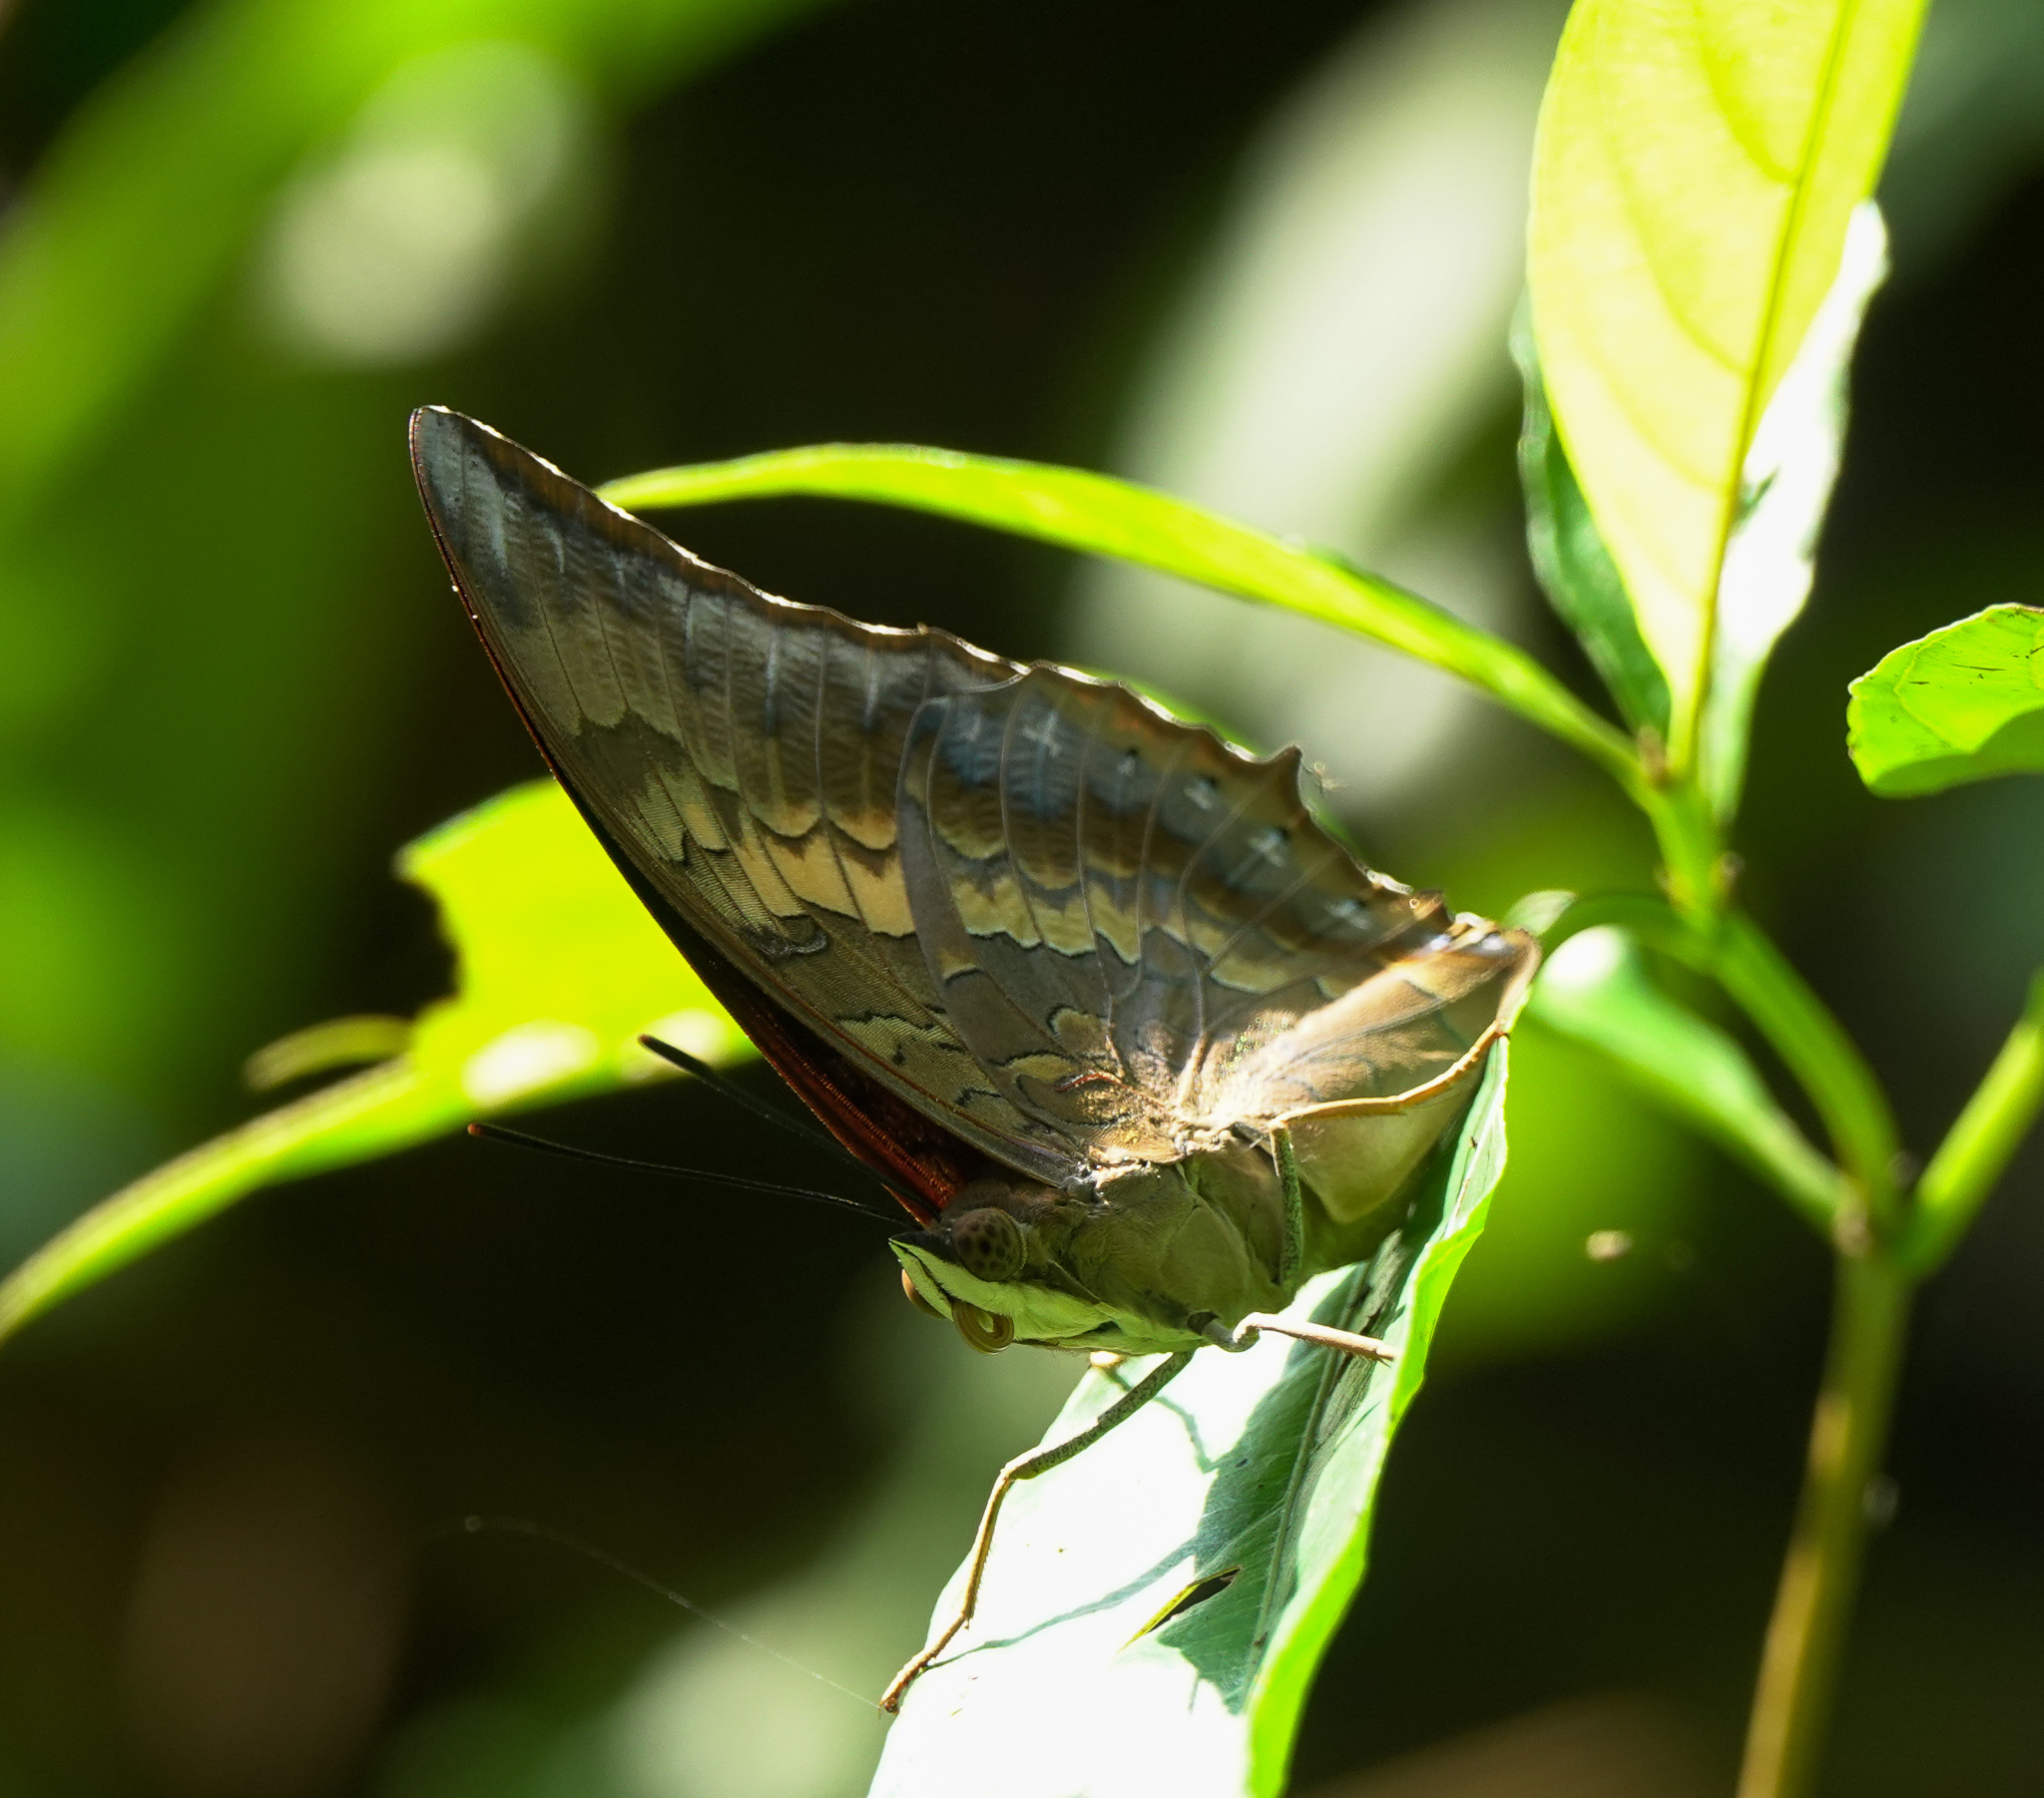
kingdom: Animalia
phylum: Arthropoda
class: Insecta
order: Lepidoptera
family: Nymphalidae
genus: Charaxes
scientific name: Charaxes bernardus
